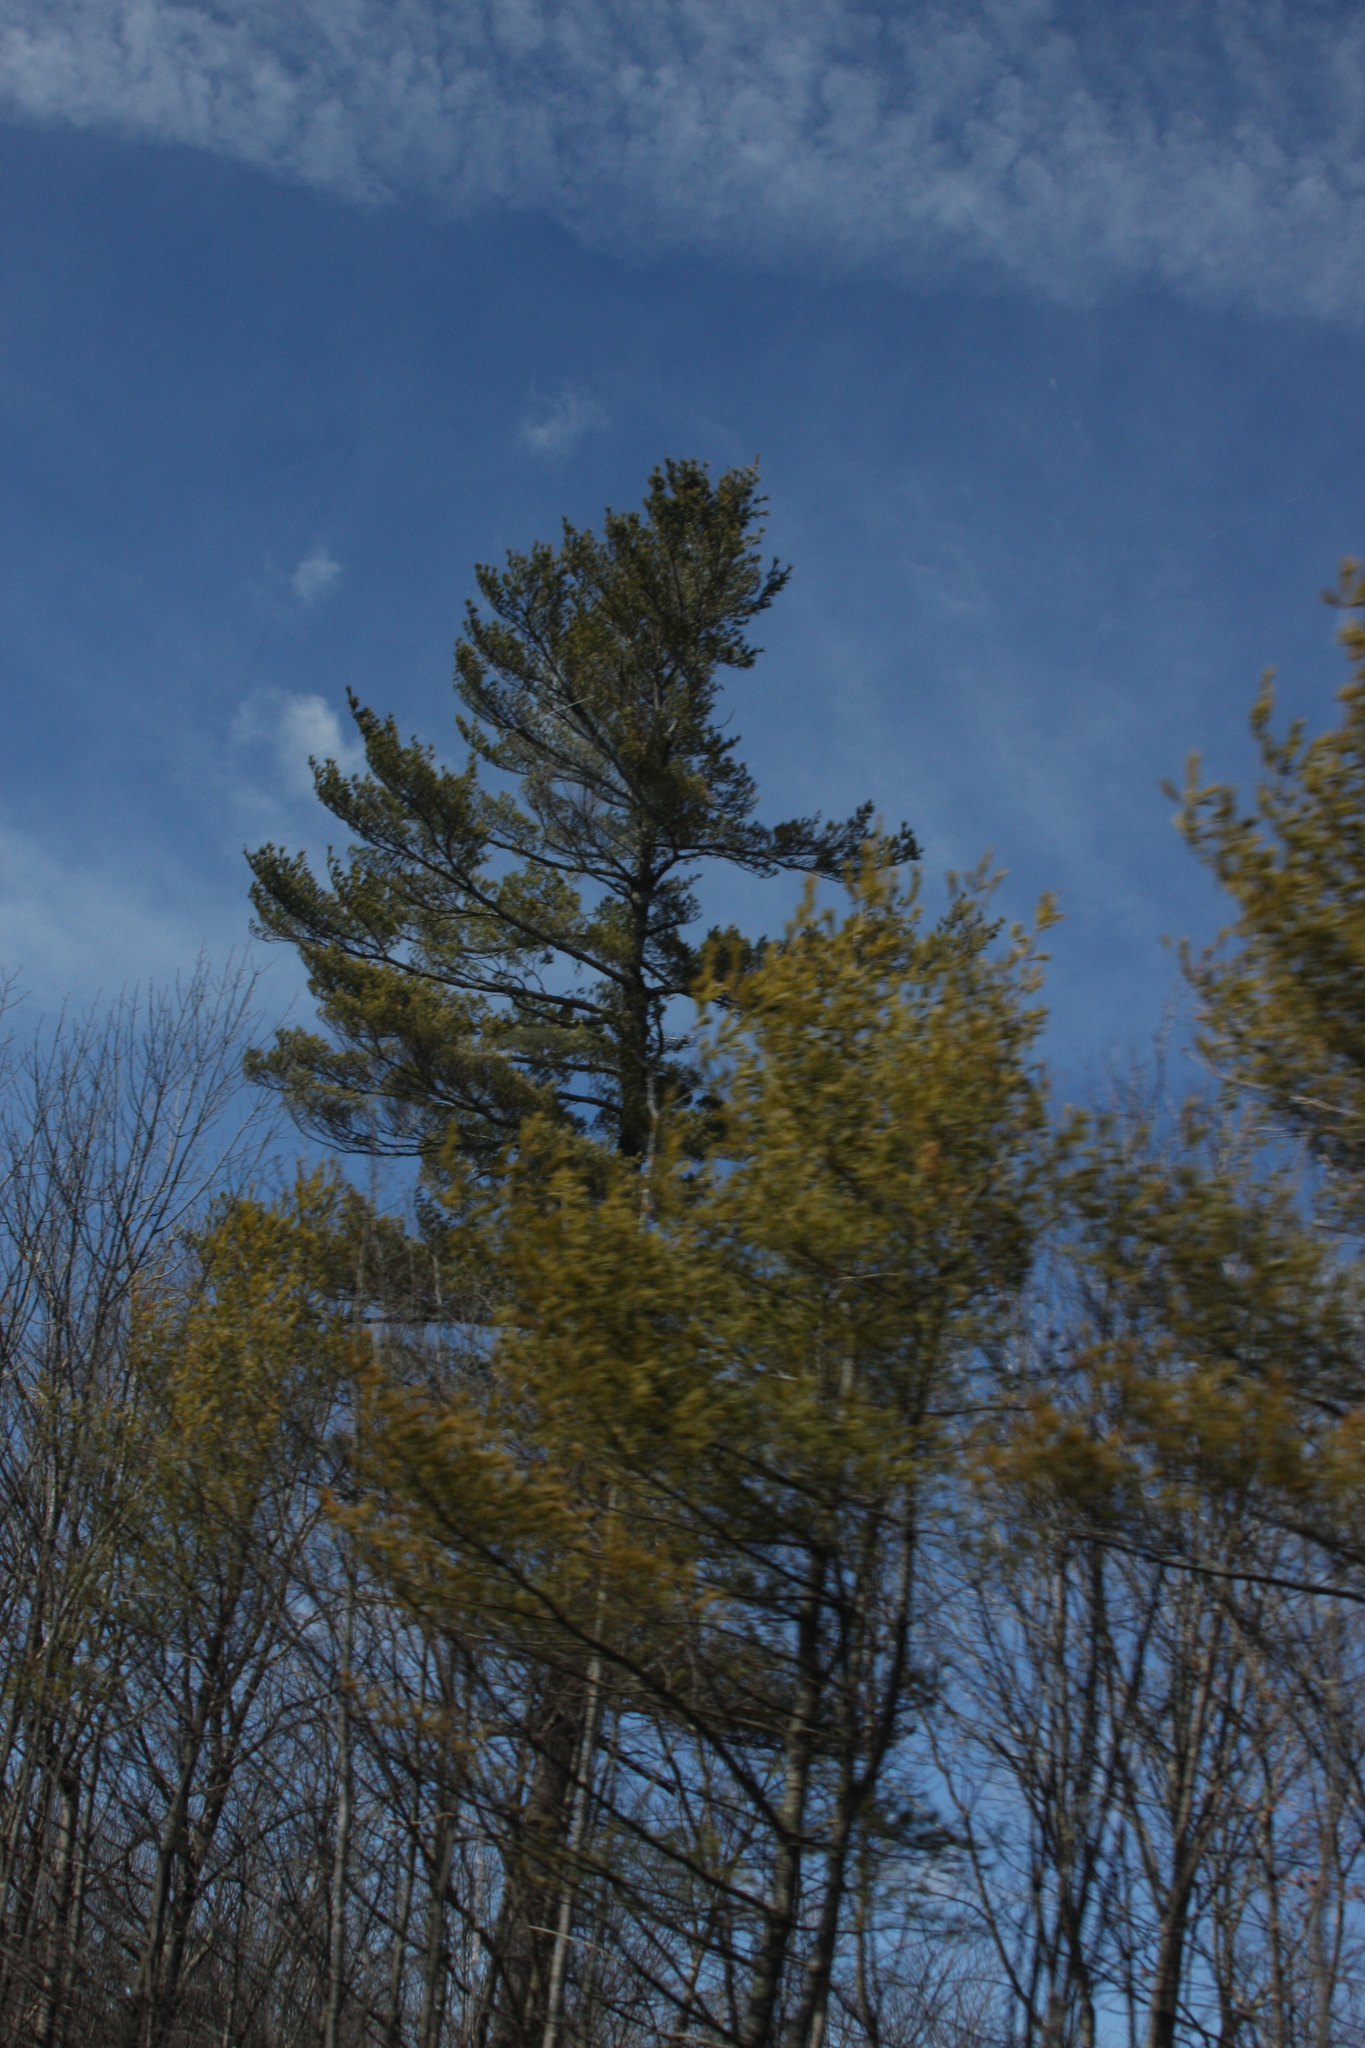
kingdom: Plantae
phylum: Tracheophyta
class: Pinopsida
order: Pinales
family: Pinaceae
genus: Pinus
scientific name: Pinus strobus
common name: Weymouth pine
